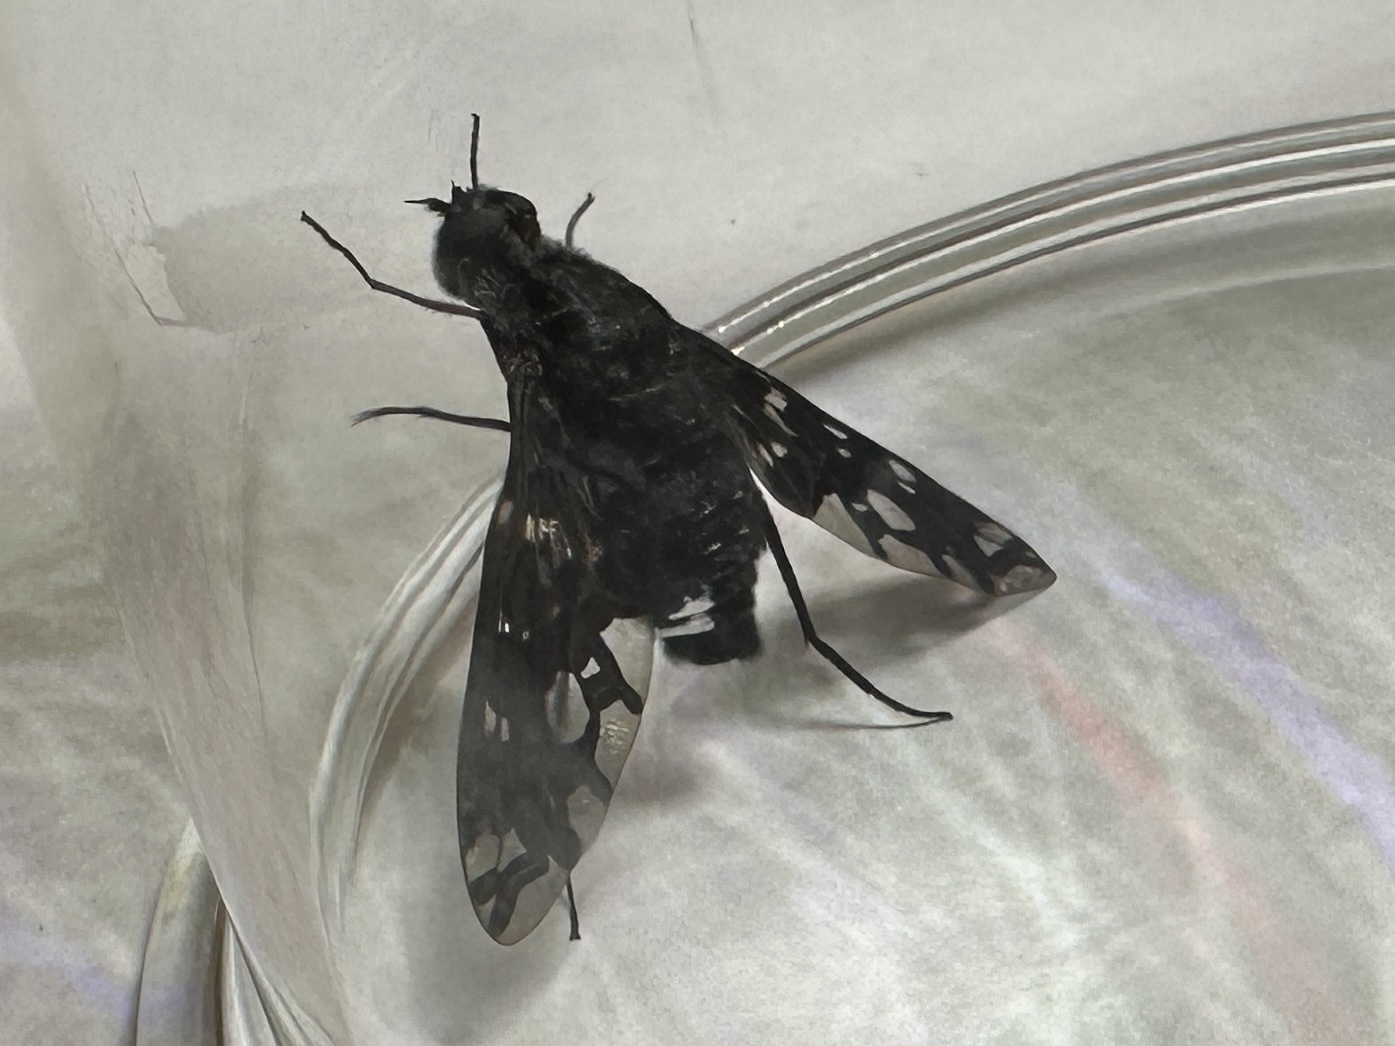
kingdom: Animalia
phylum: Arthropoda
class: Insecta
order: Diptera
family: Bombyliidae
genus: Xenox
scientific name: Xenox tigrinus
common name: Tiger bee fly
